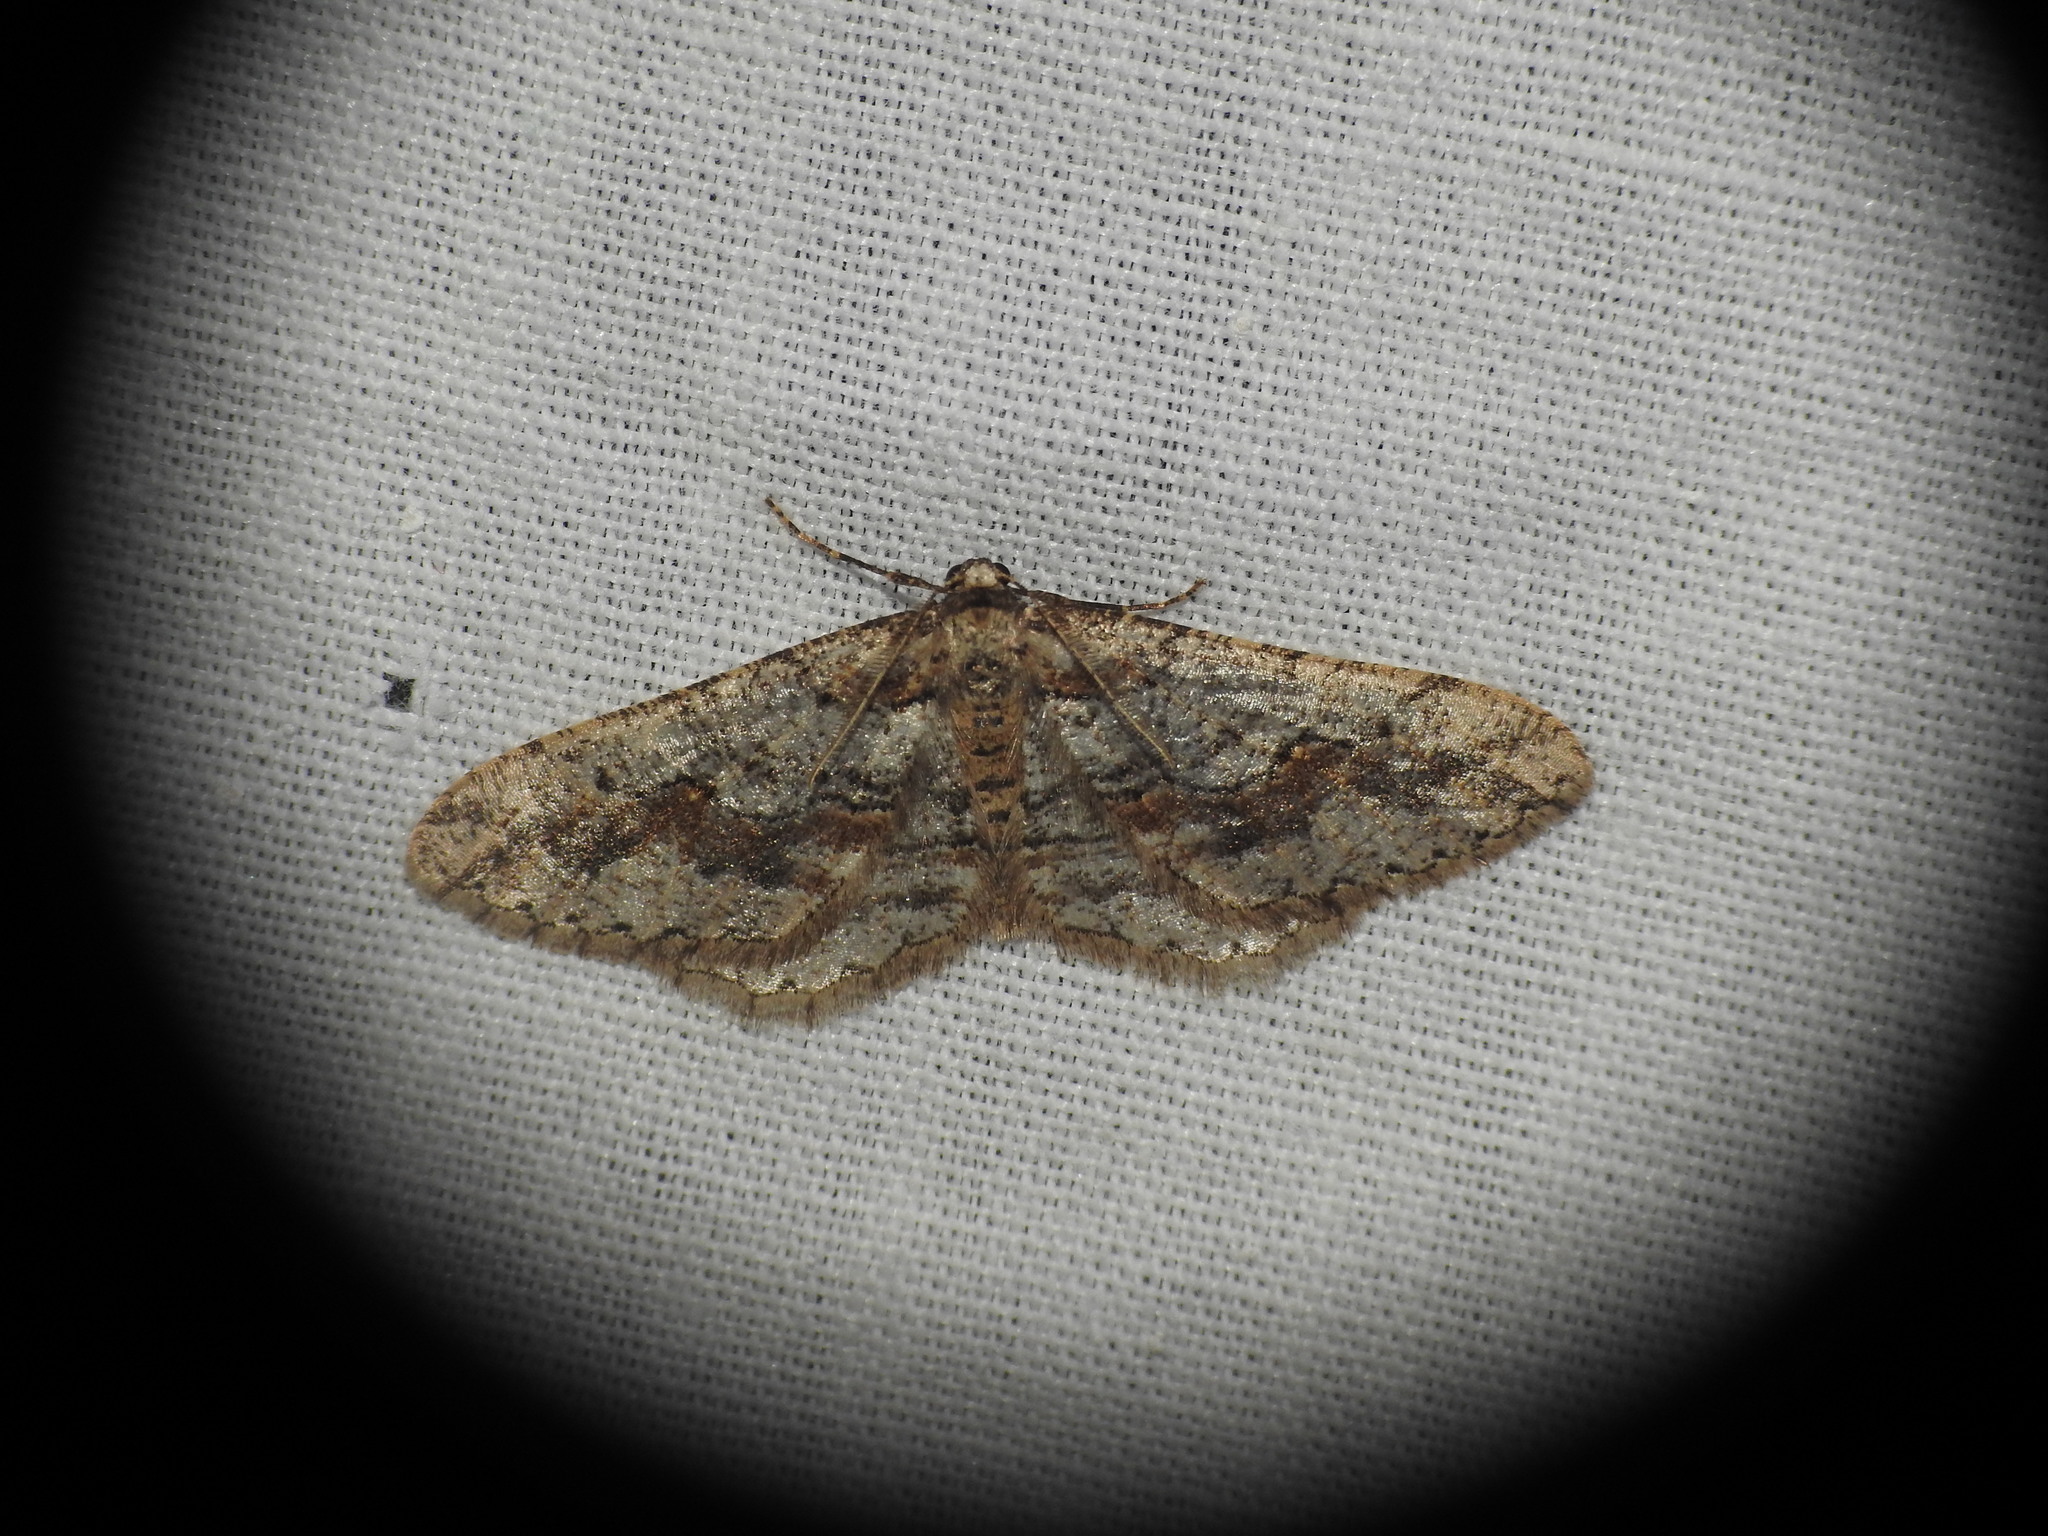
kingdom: Animalia
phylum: Arthropoda
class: Insecta
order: Lepidoptera
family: Geometridae
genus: Agriopis
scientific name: Agriopis bajaria
